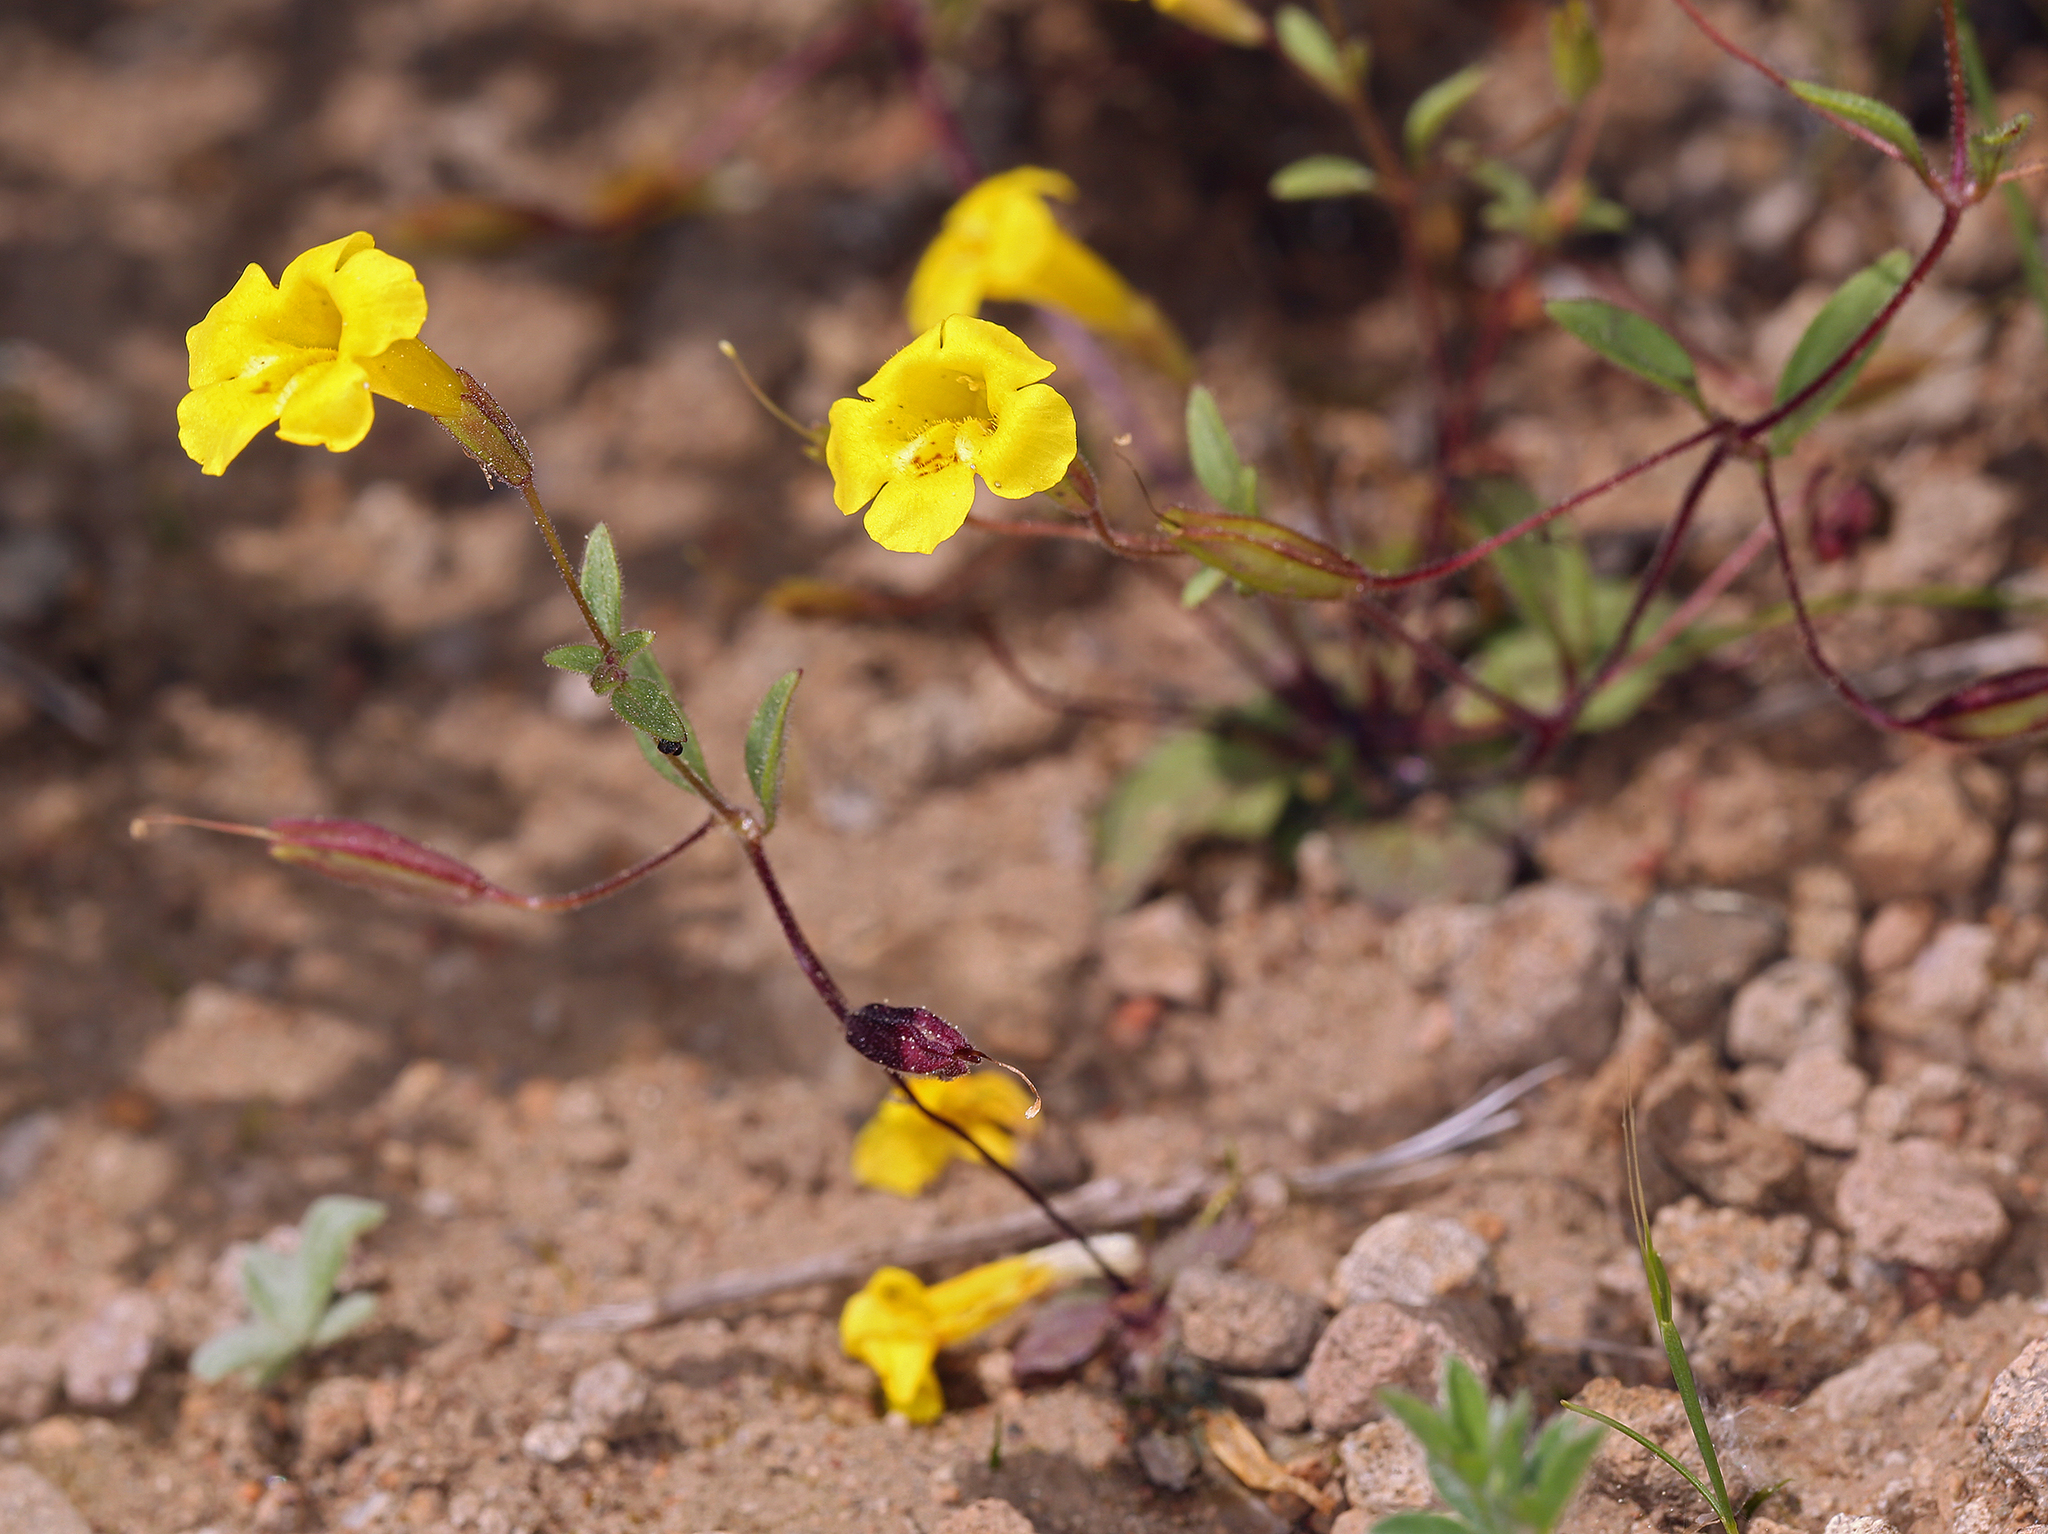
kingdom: Plantae
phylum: Tracheophyta
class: Magnoliopsida
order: Lamiales
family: Phrymaceae
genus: Erythranthe
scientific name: Erythranthe pulsiferae
